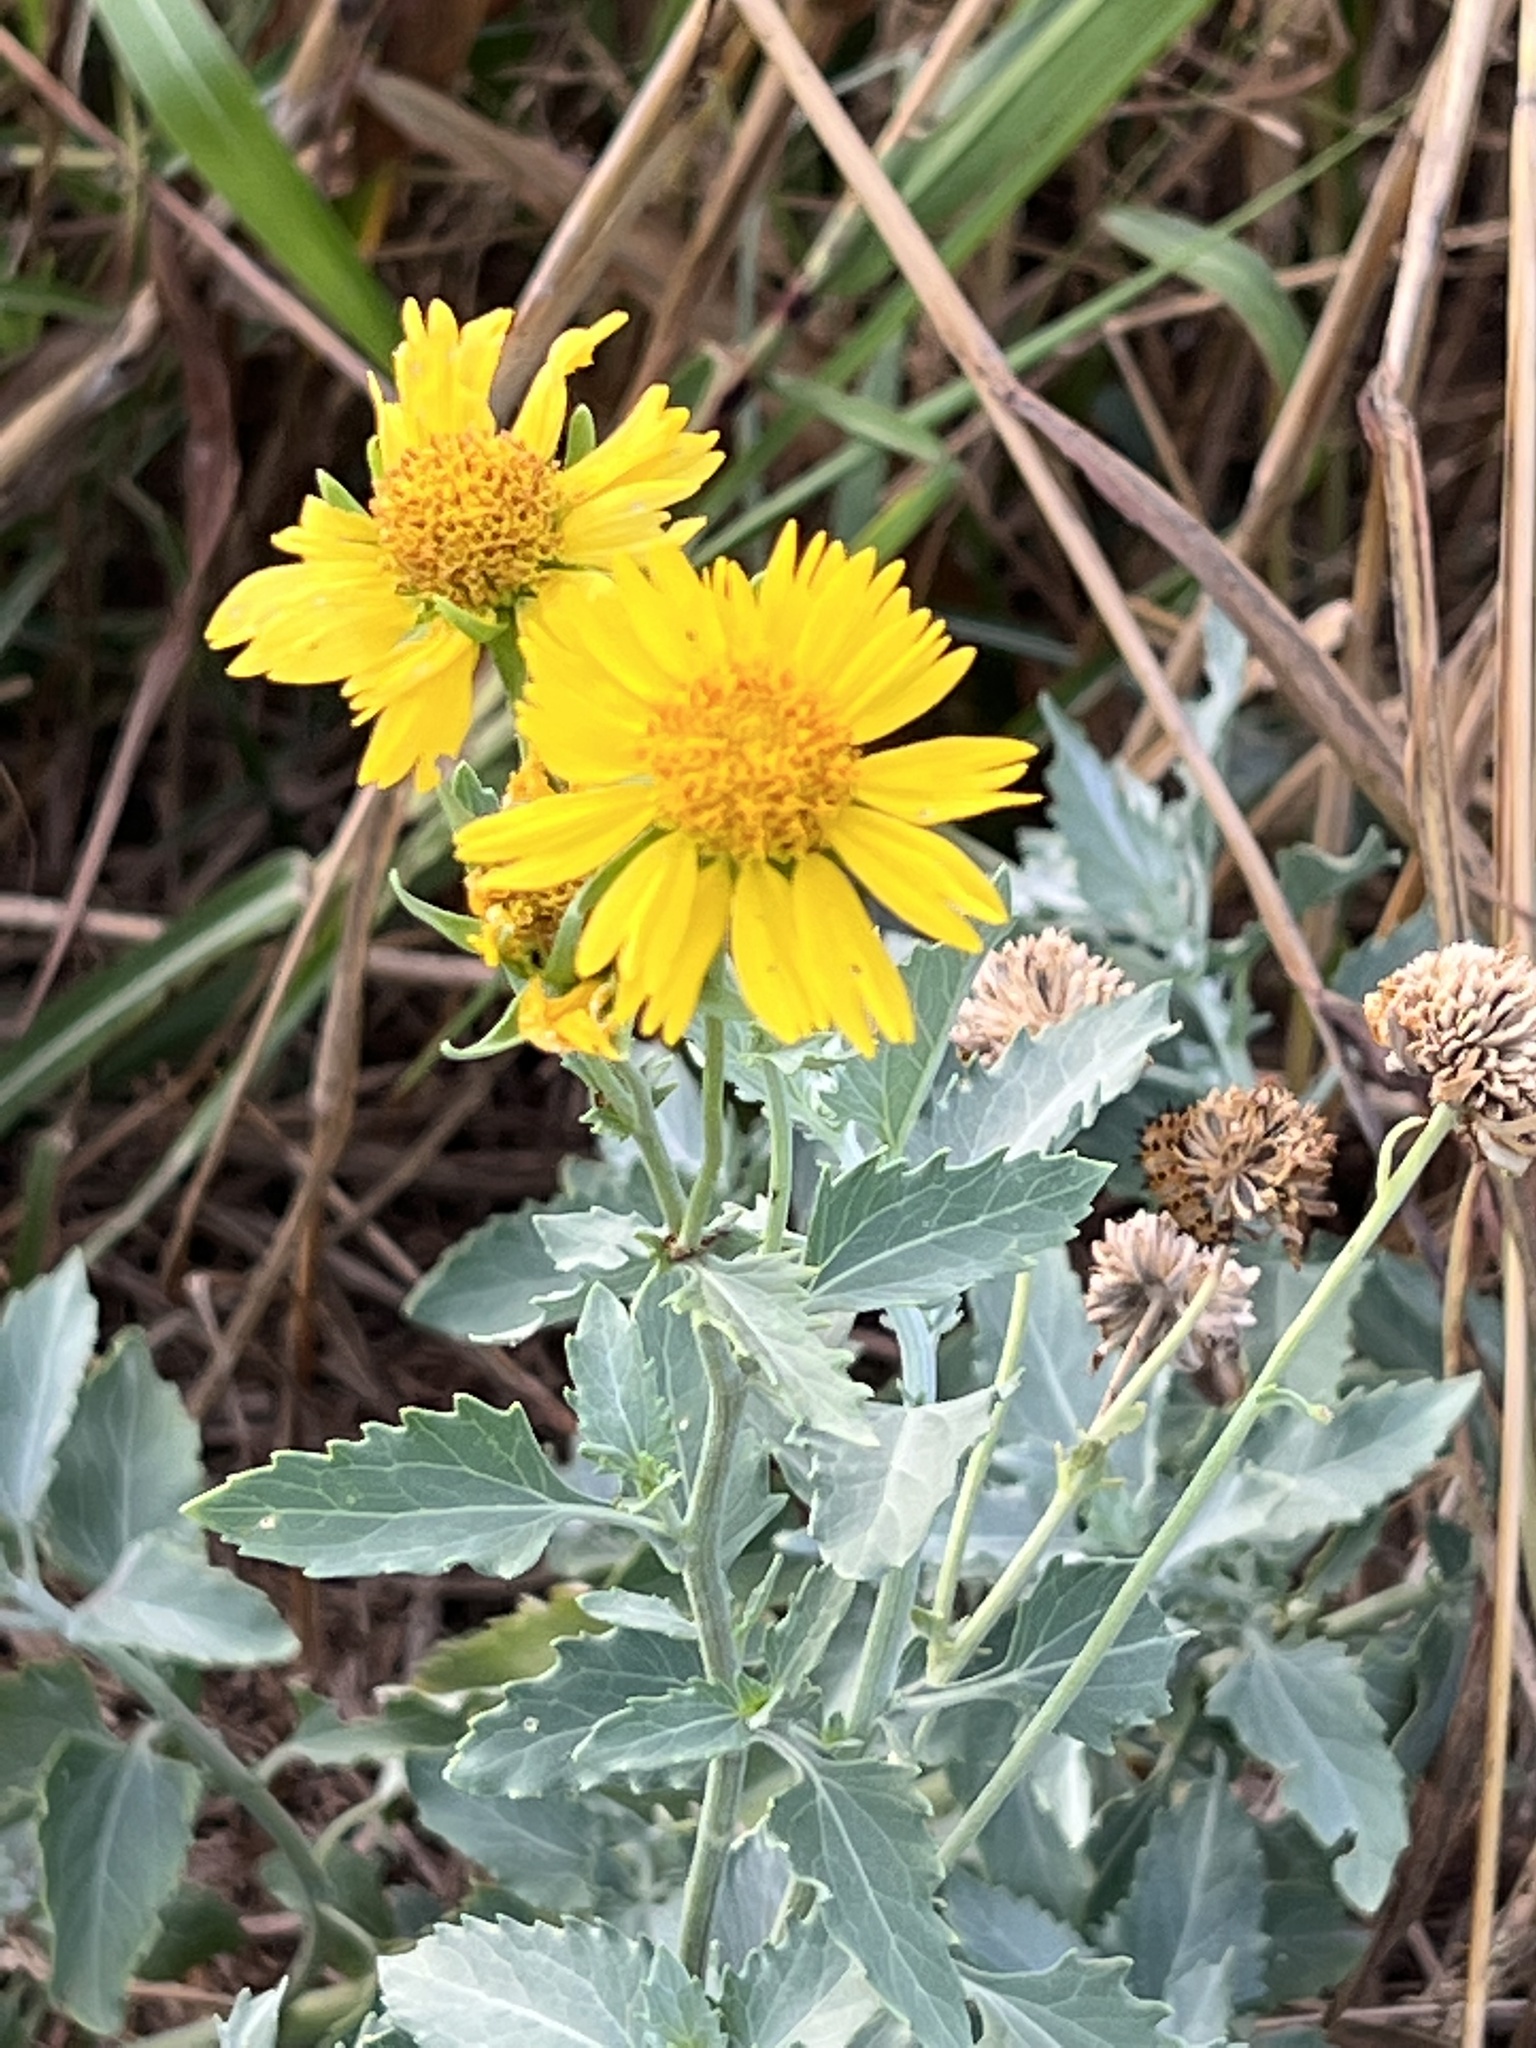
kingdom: Plantae
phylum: Tracheophyta
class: Magnoliopsida
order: Asterales
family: Asteraceae
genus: Verbesina
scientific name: Verbesina encelioides
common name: Golden crownbeard
